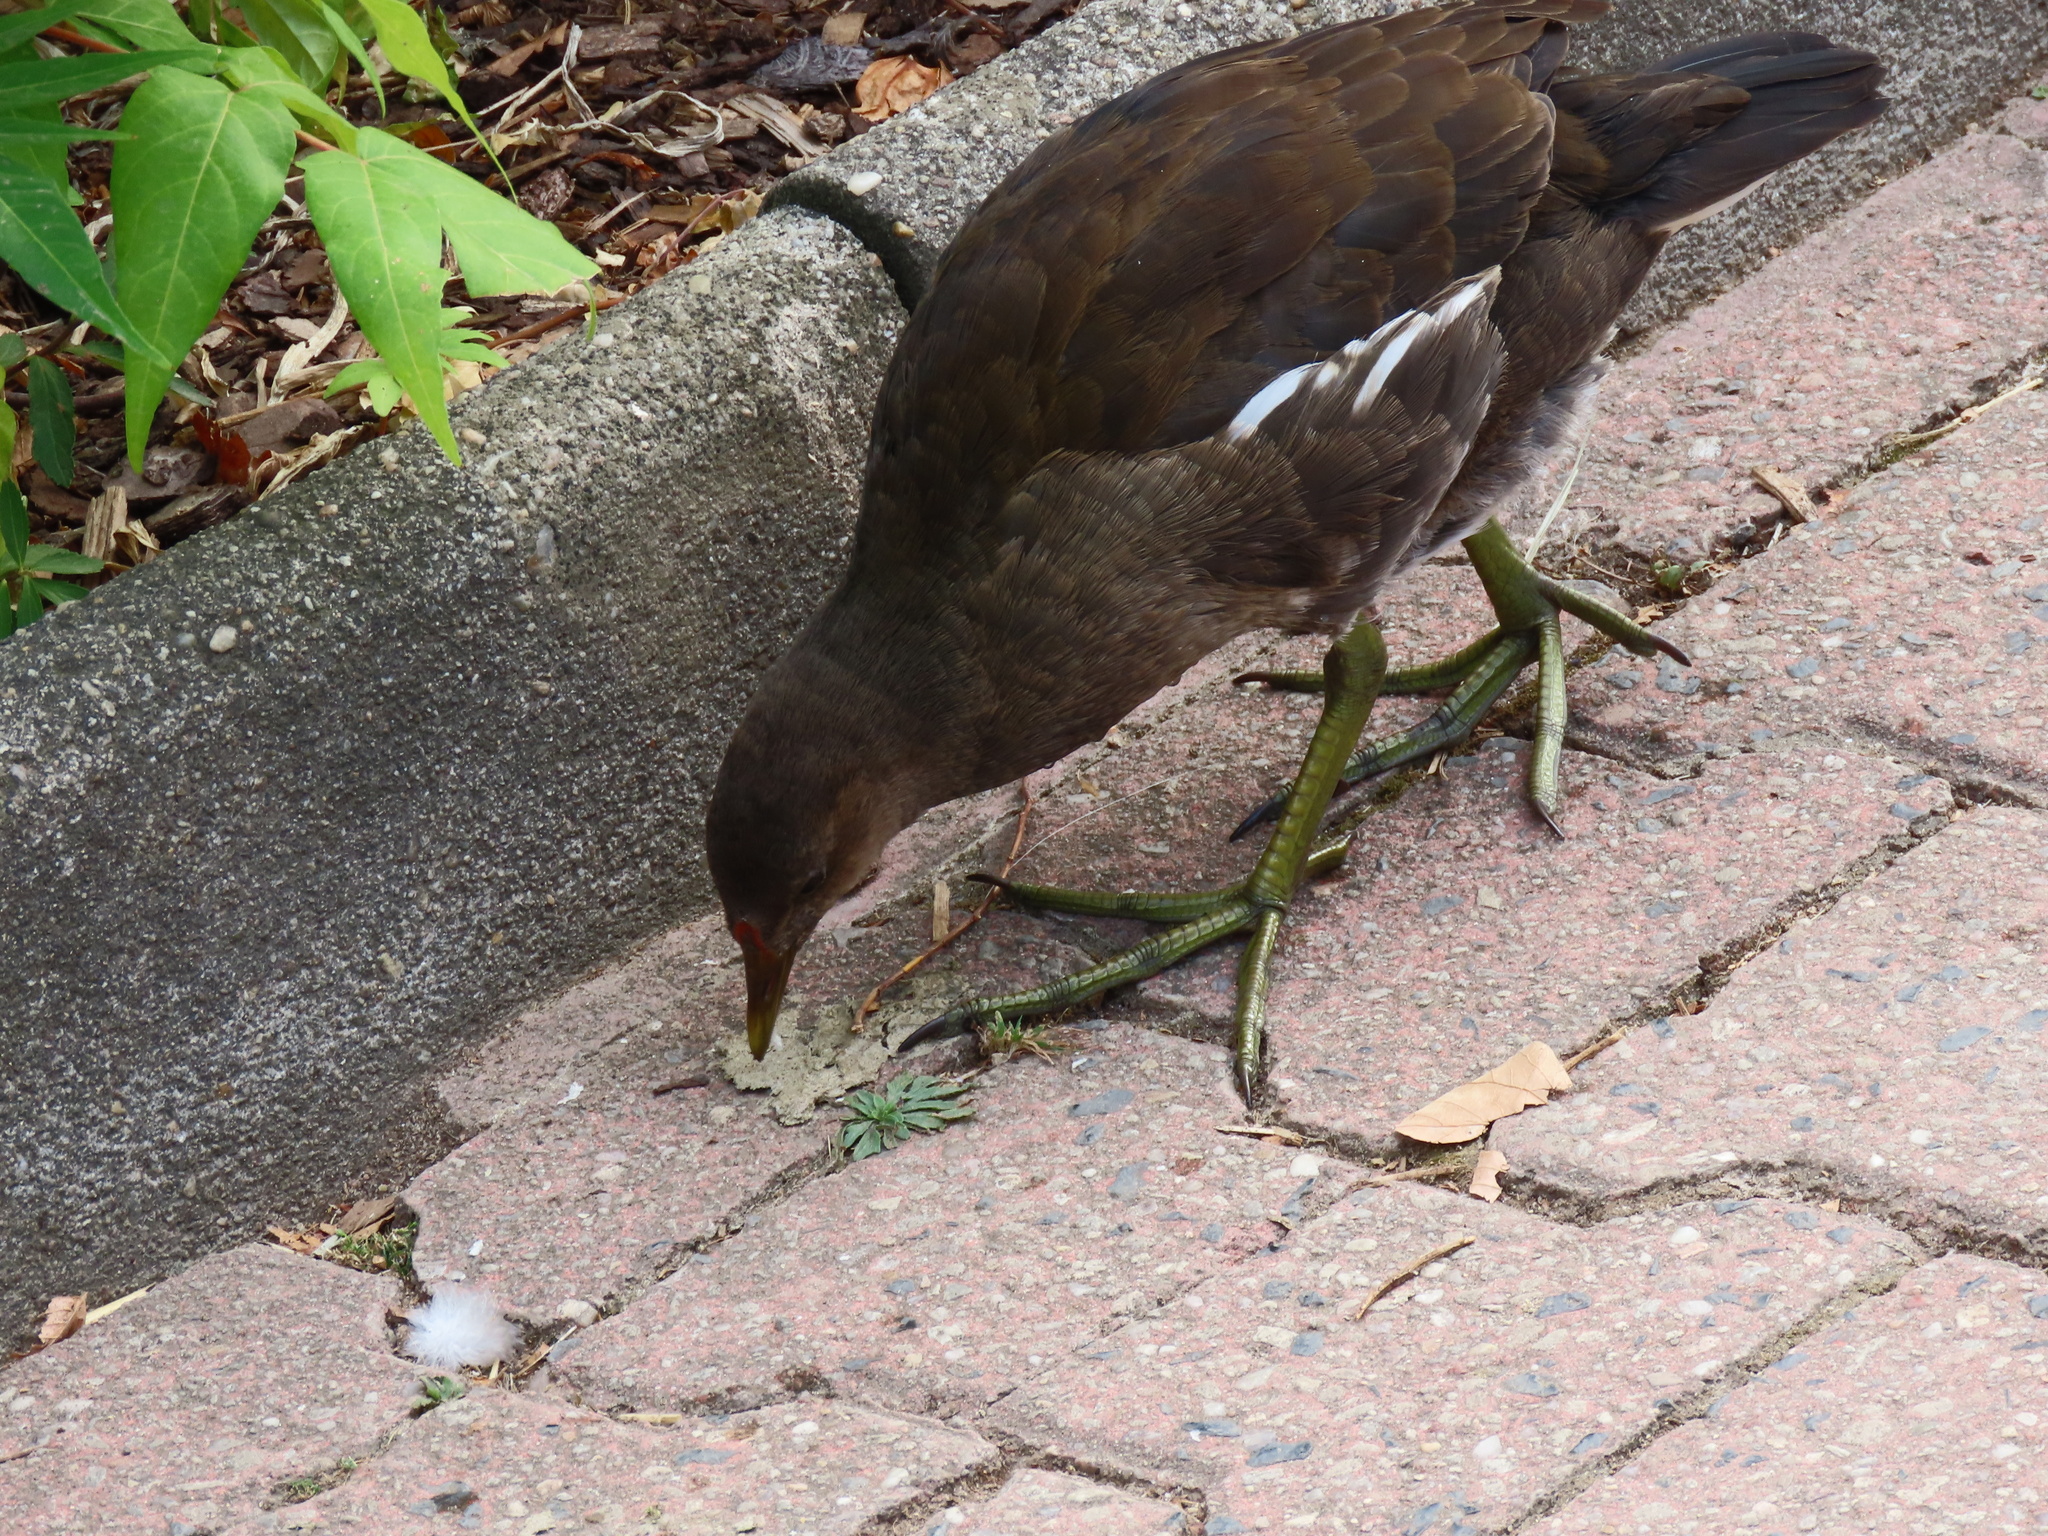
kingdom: Animalia
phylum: Chordata
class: Aves
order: Gruiformes
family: Rallidae
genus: Gallinula
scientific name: Gallinula chloropus
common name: Common moorhen
